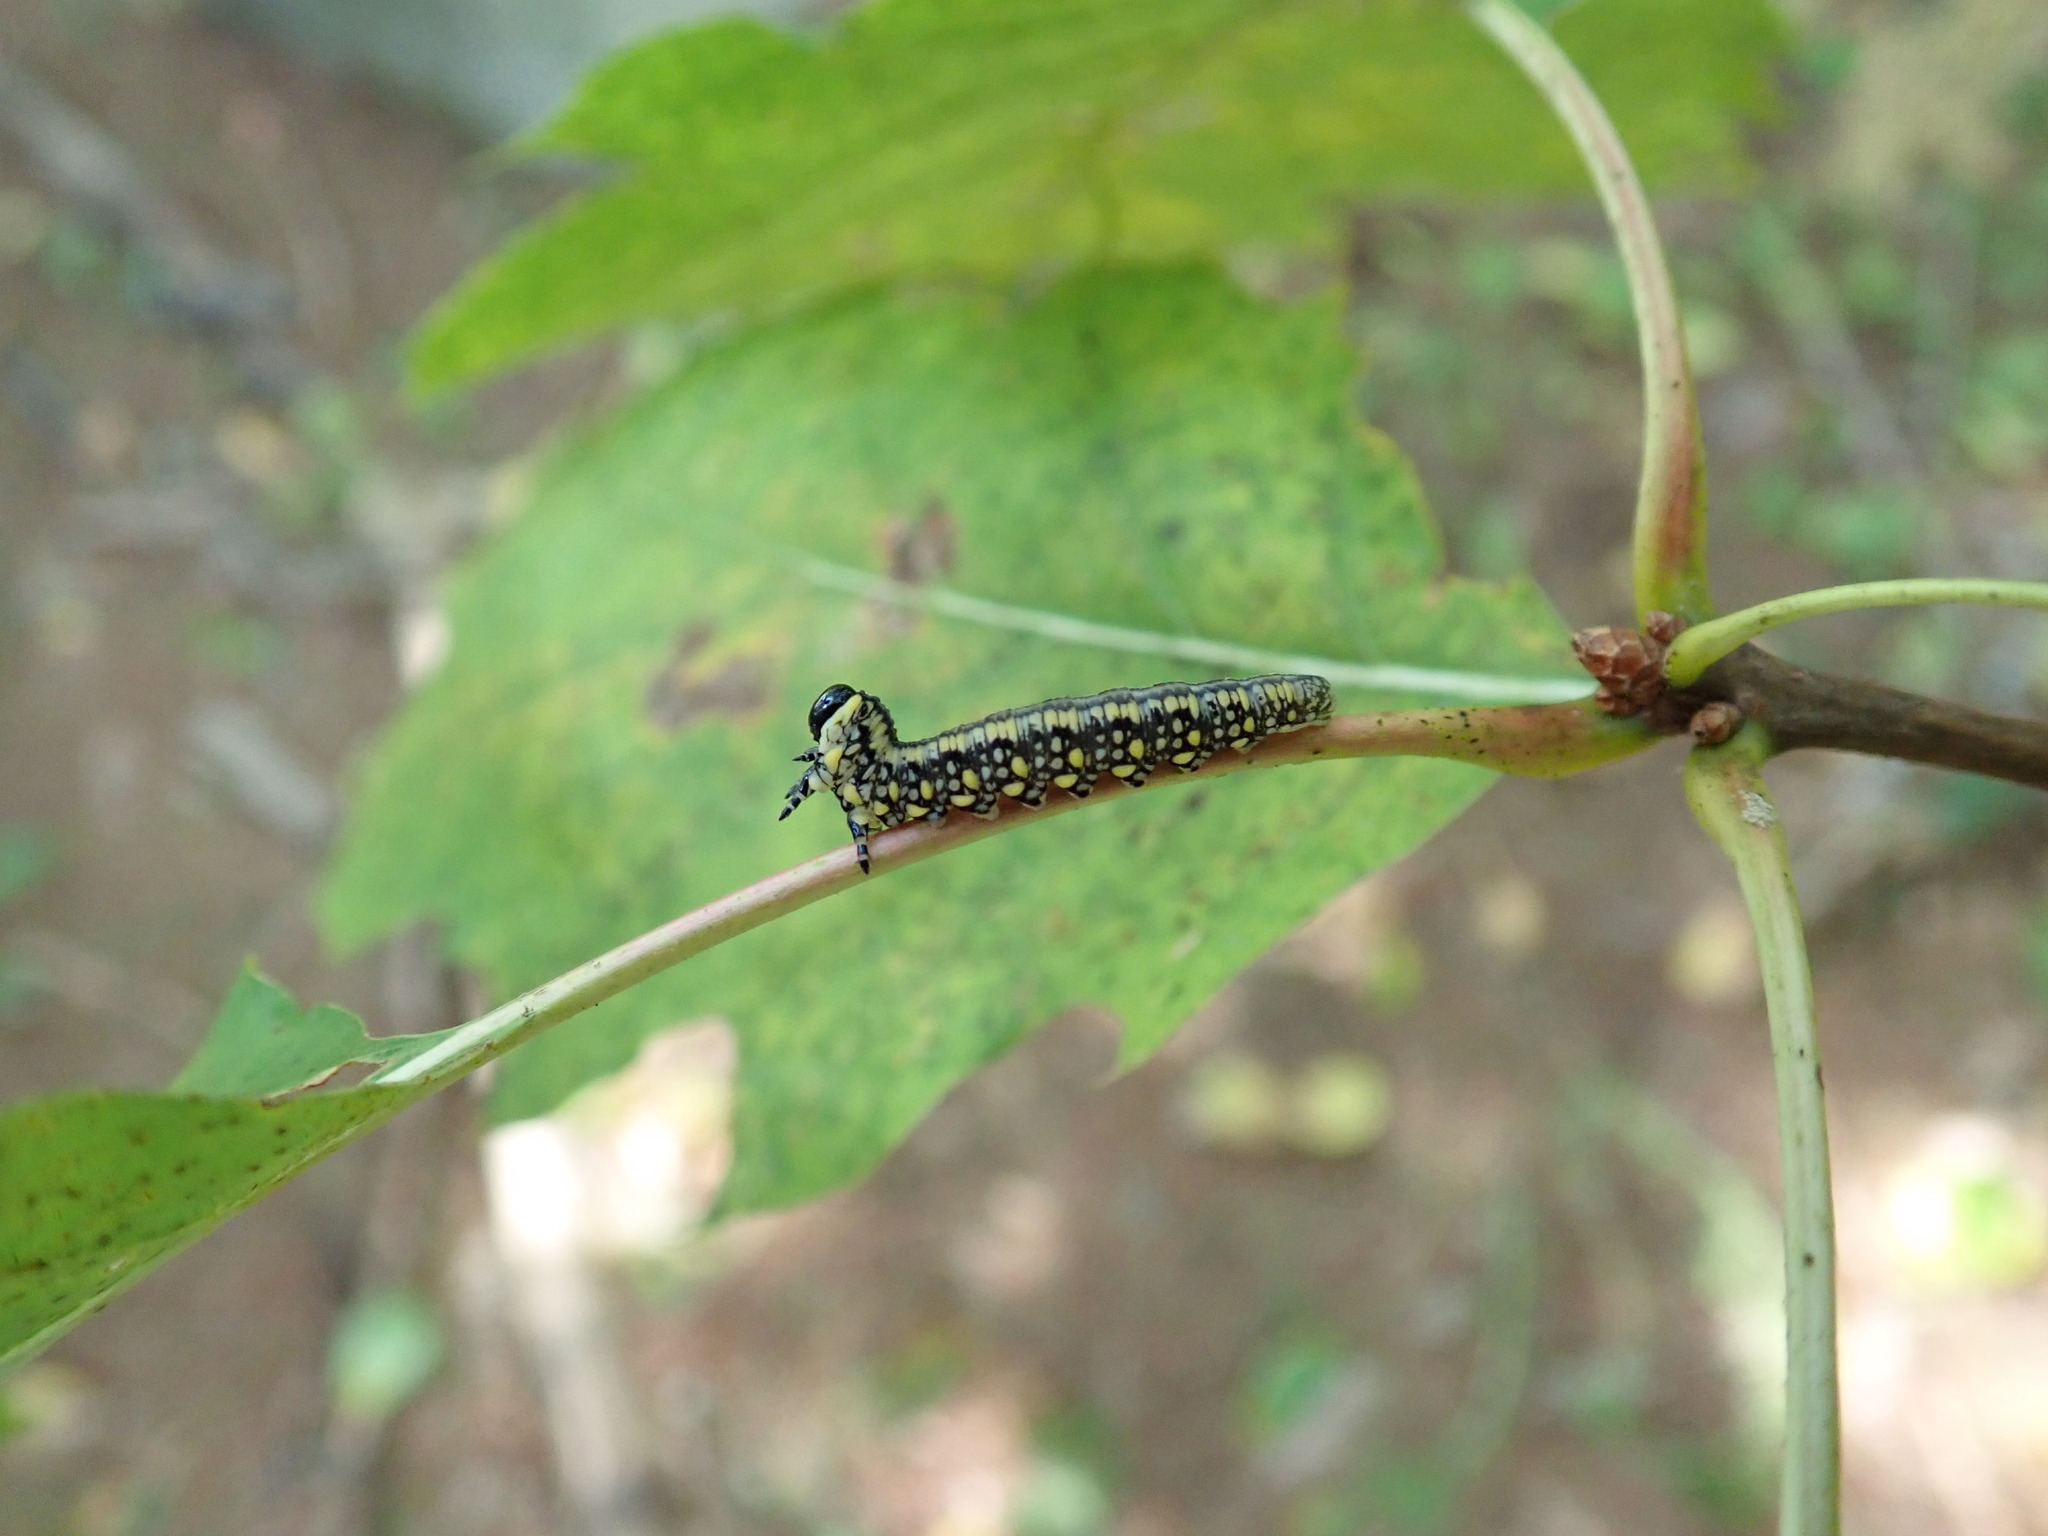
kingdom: Animalia
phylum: Arthropoda
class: Insecta
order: Hymenoptera
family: Diprionidae
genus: Diprion
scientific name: Diprion similis
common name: Pine sawfly
